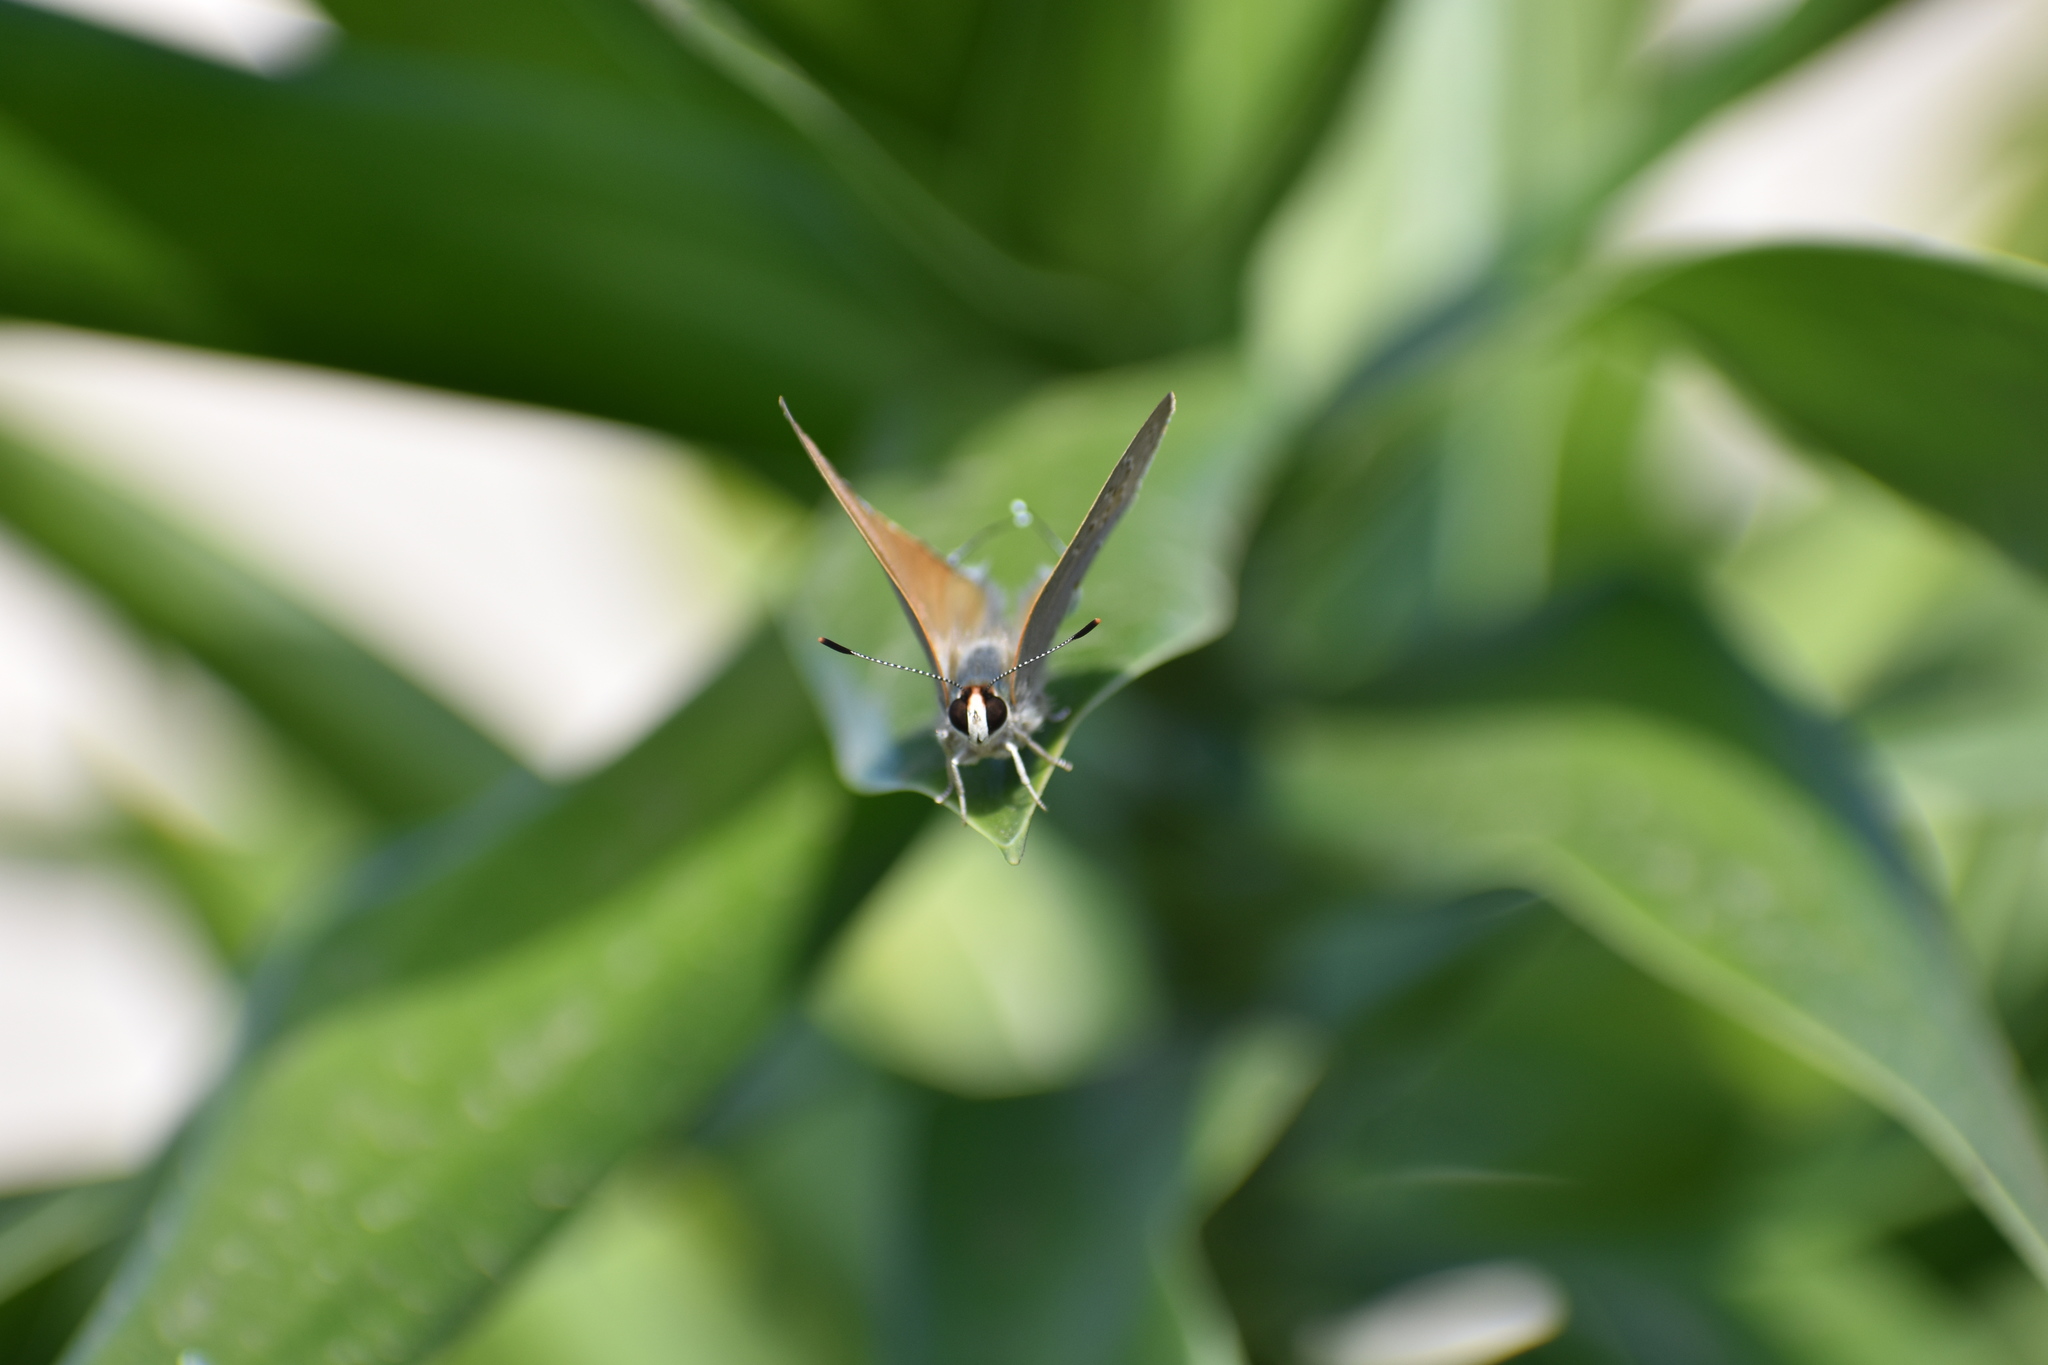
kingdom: Animalia
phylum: Arthropoda
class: Insecta
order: Lepidoptera
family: Lycaenidae
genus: Deudorix
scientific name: Deudorix antalus
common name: Brown playboy
